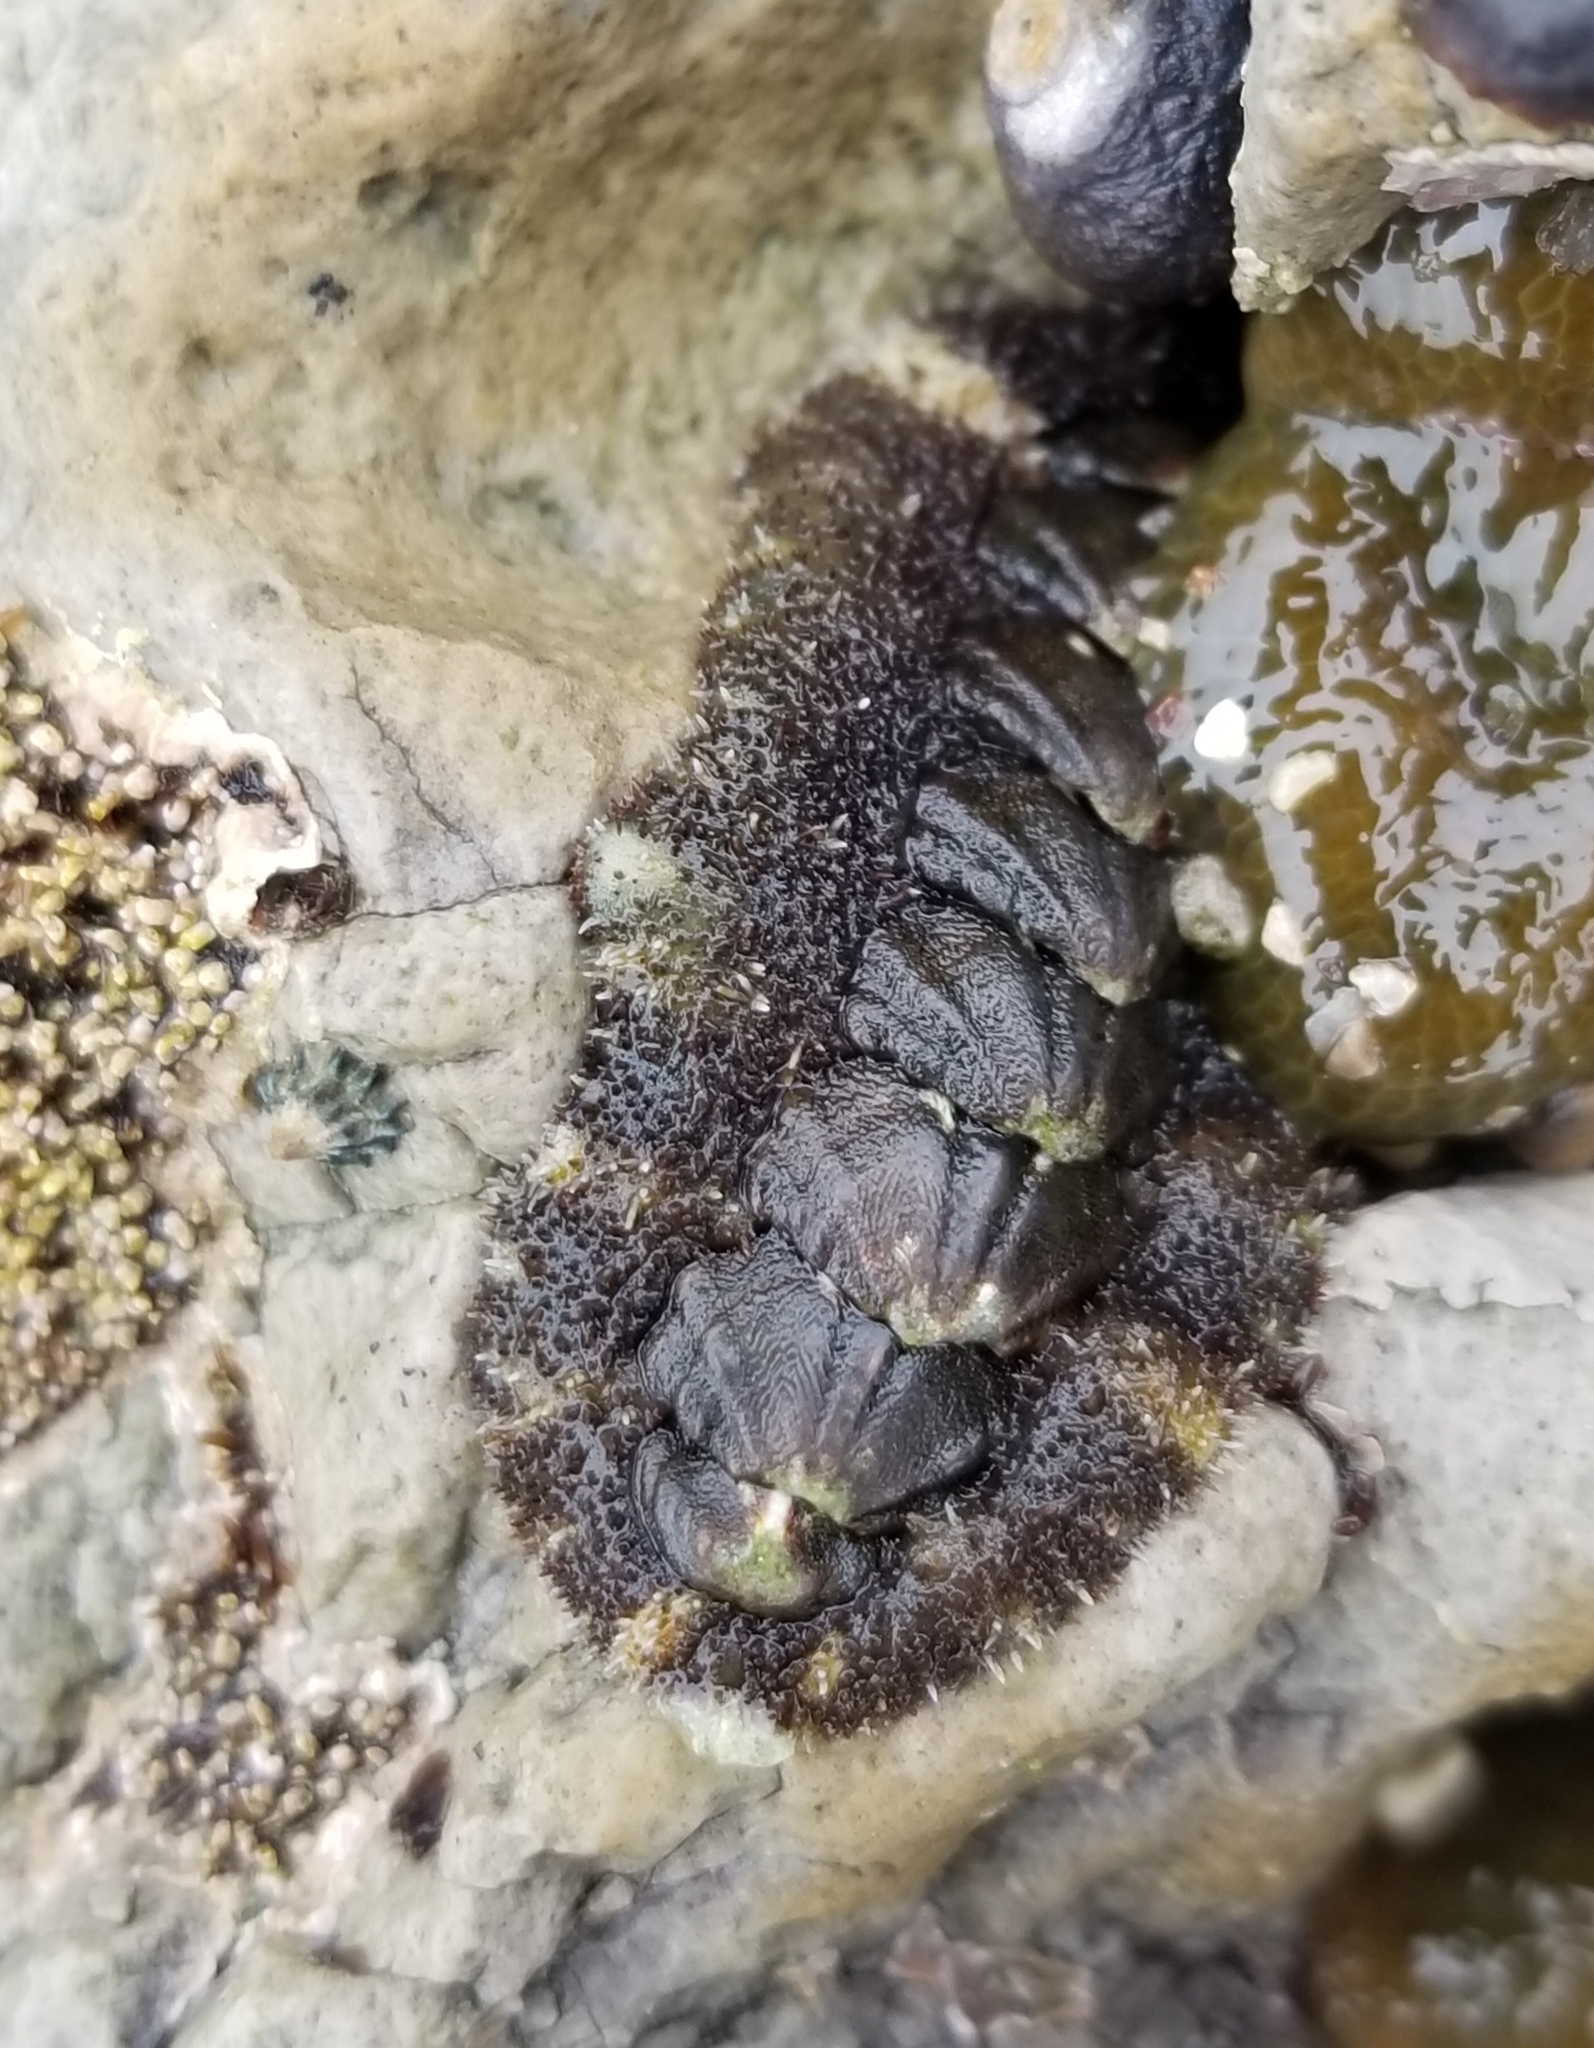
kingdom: Animalia
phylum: Mollusca
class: Polyplacophora
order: Chitonida
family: Tonicellidae
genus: Nuttallina
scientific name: Nuttallina californica
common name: California nuttall chiton
